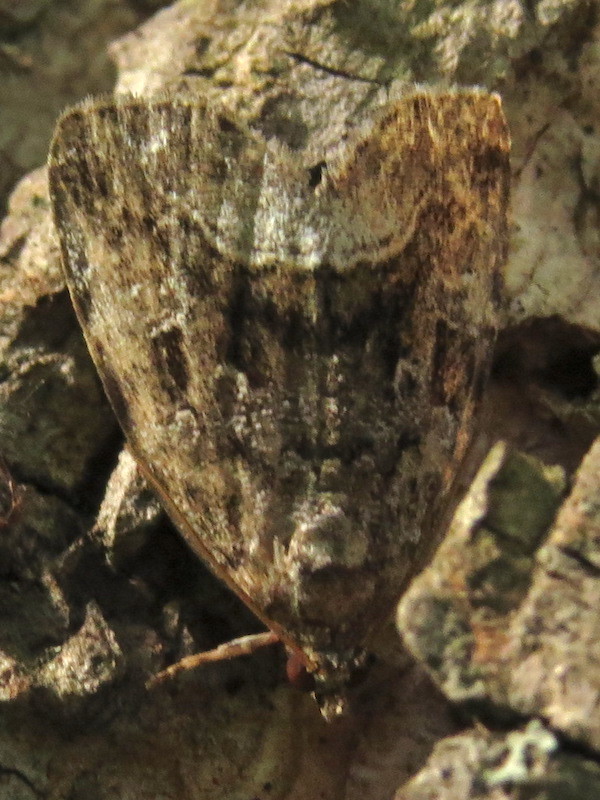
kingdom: Animalia
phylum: Arthropoda
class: Insecta
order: Lepidoptera
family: Noctuidae
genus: Protodeltote
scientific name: Protodeltote muscosula
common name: Large mossy glyph
